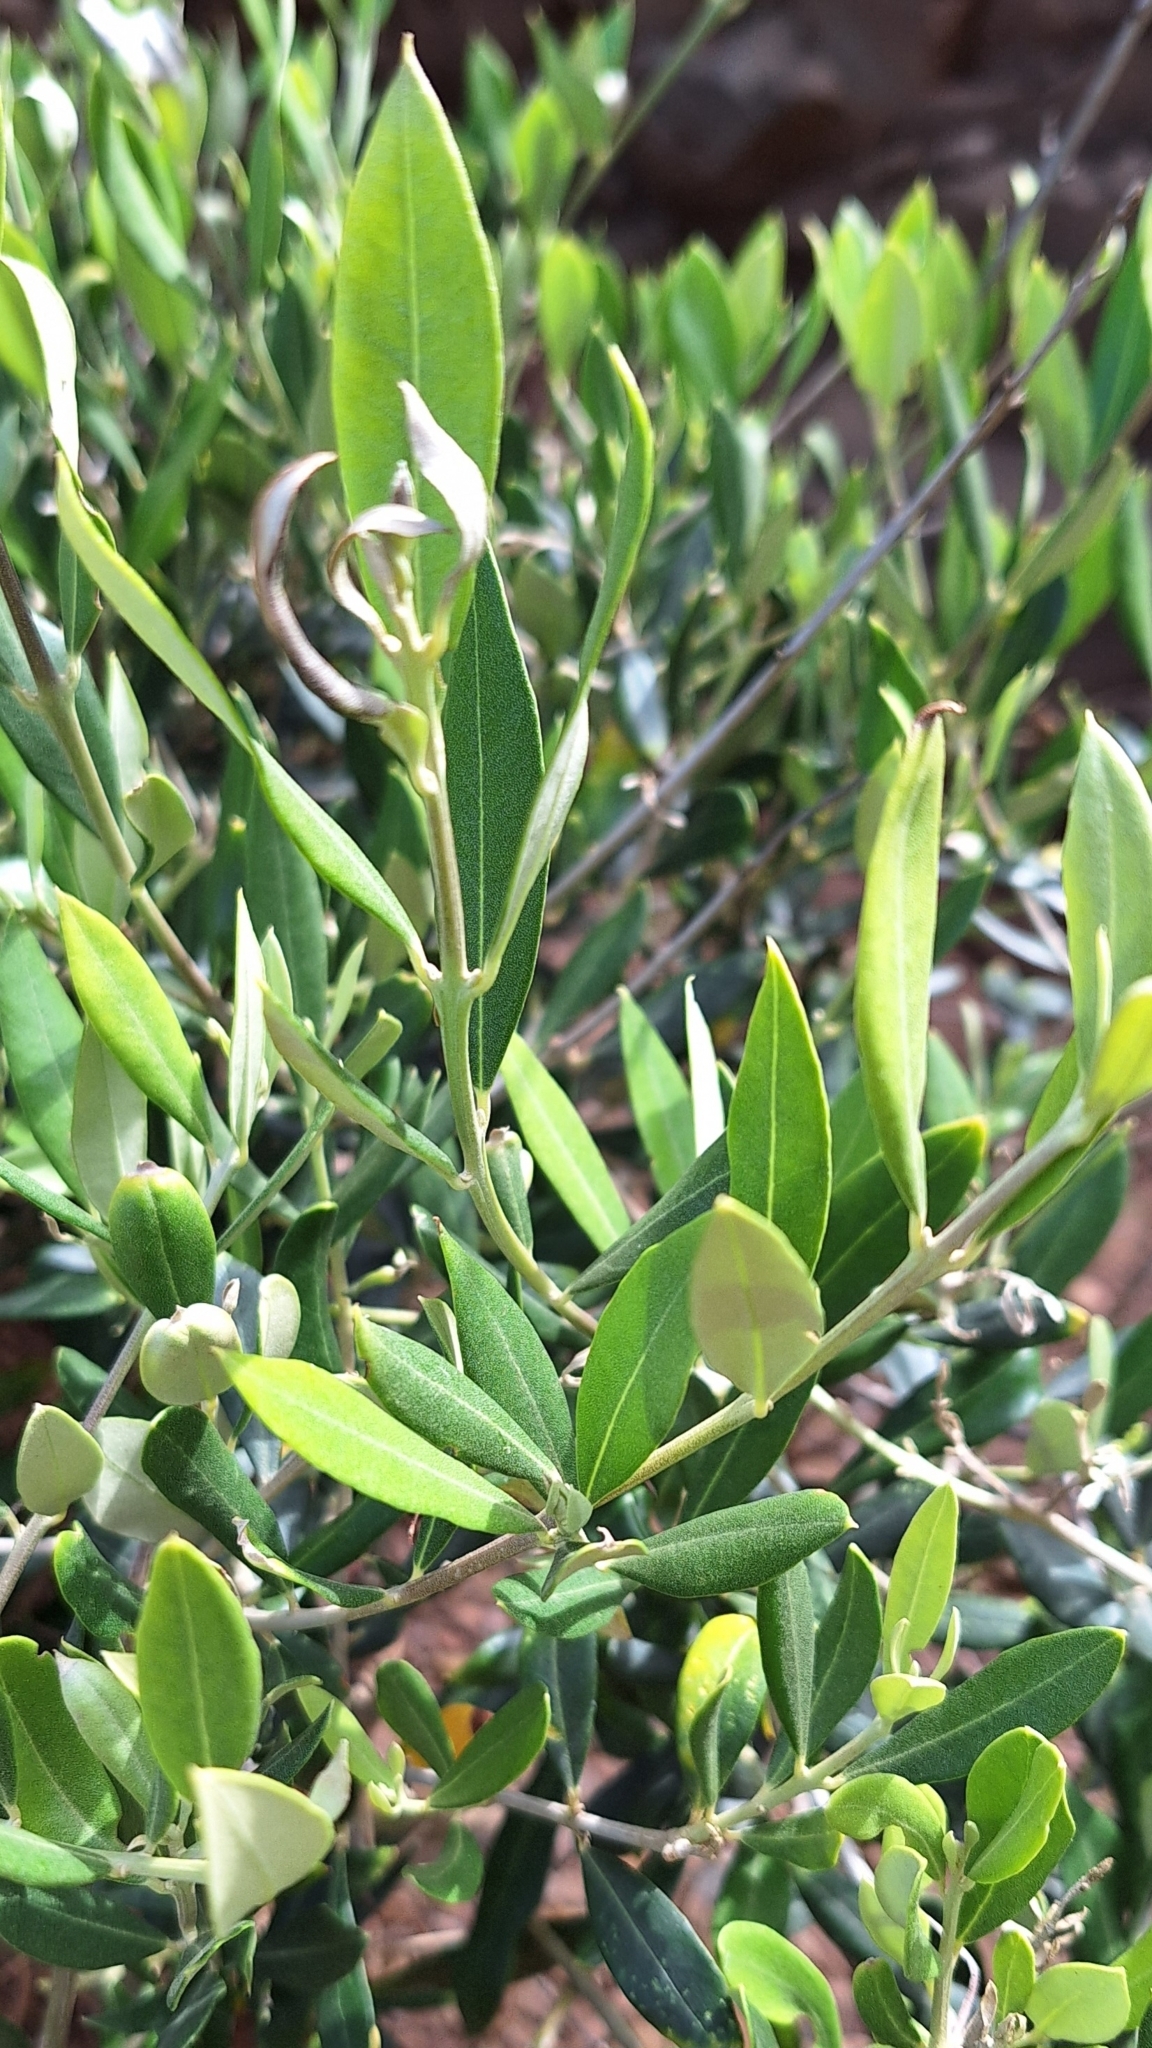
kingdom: Plantae
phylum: Tracheophyta
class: Magnoliopsida
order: Lamiales
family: Oleaceae
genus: Olea
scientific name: Olea europaea
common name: Olive
